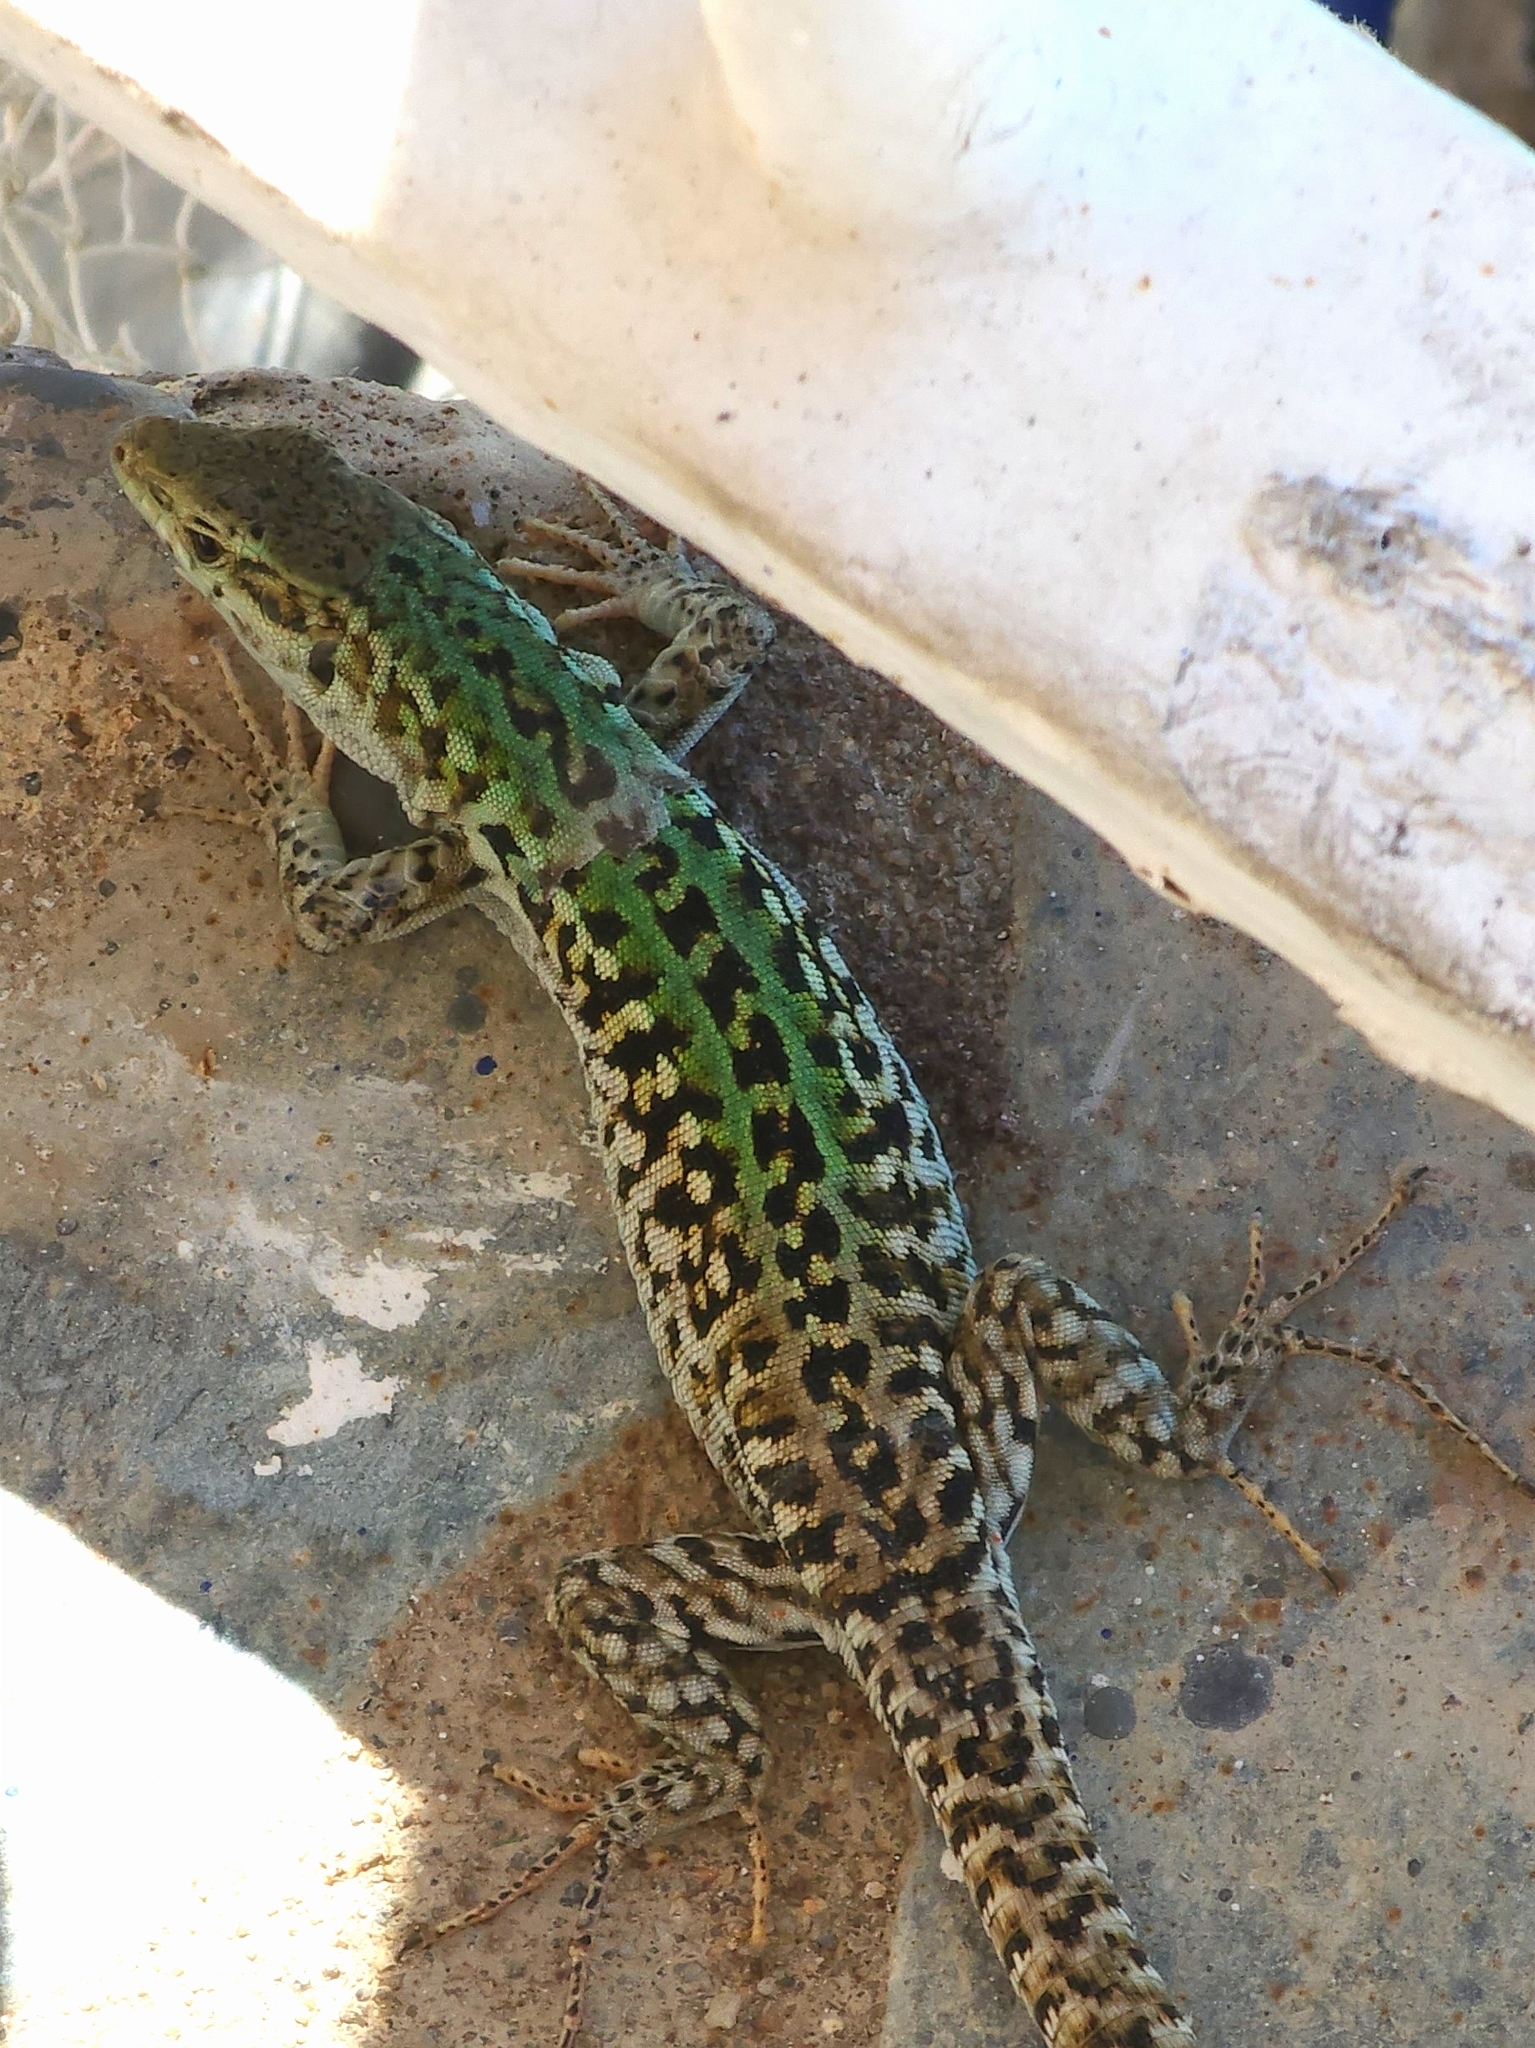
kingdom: Animalia
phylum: Chordata
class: Squamata
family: Lacertidae
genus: Podarcis
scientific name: Podarcis siculus
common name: Italian wall lizard
